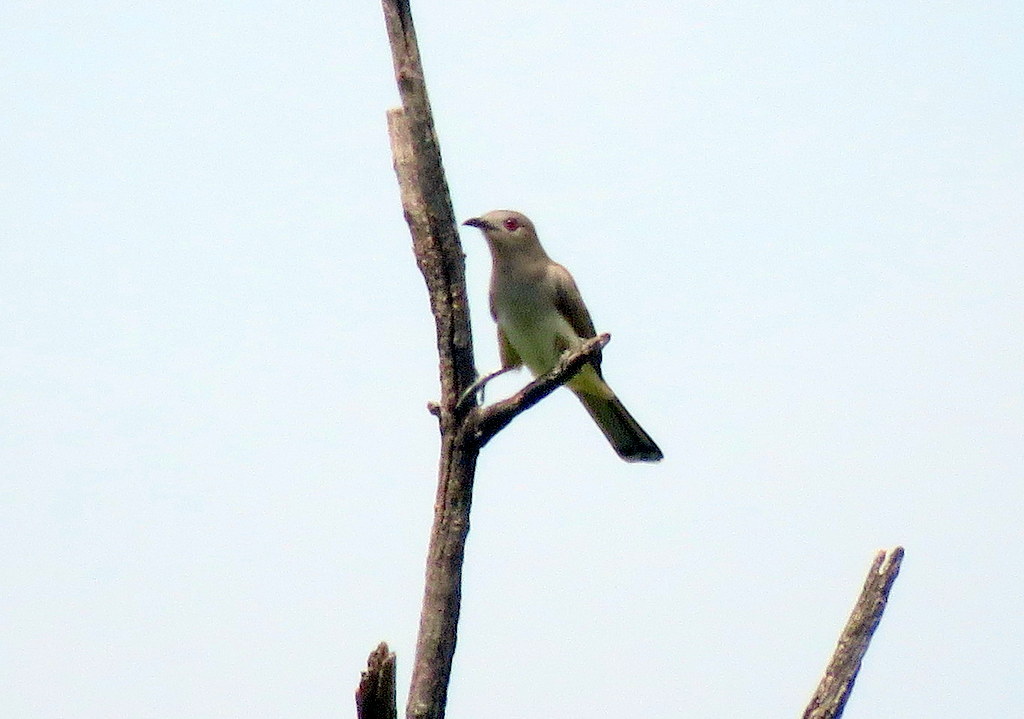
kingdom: Animalia
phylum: Chordata
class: Aves
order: Cuculiformes
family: Cuculidae
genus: Coccyzus
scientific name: Coccyzus cinereus
